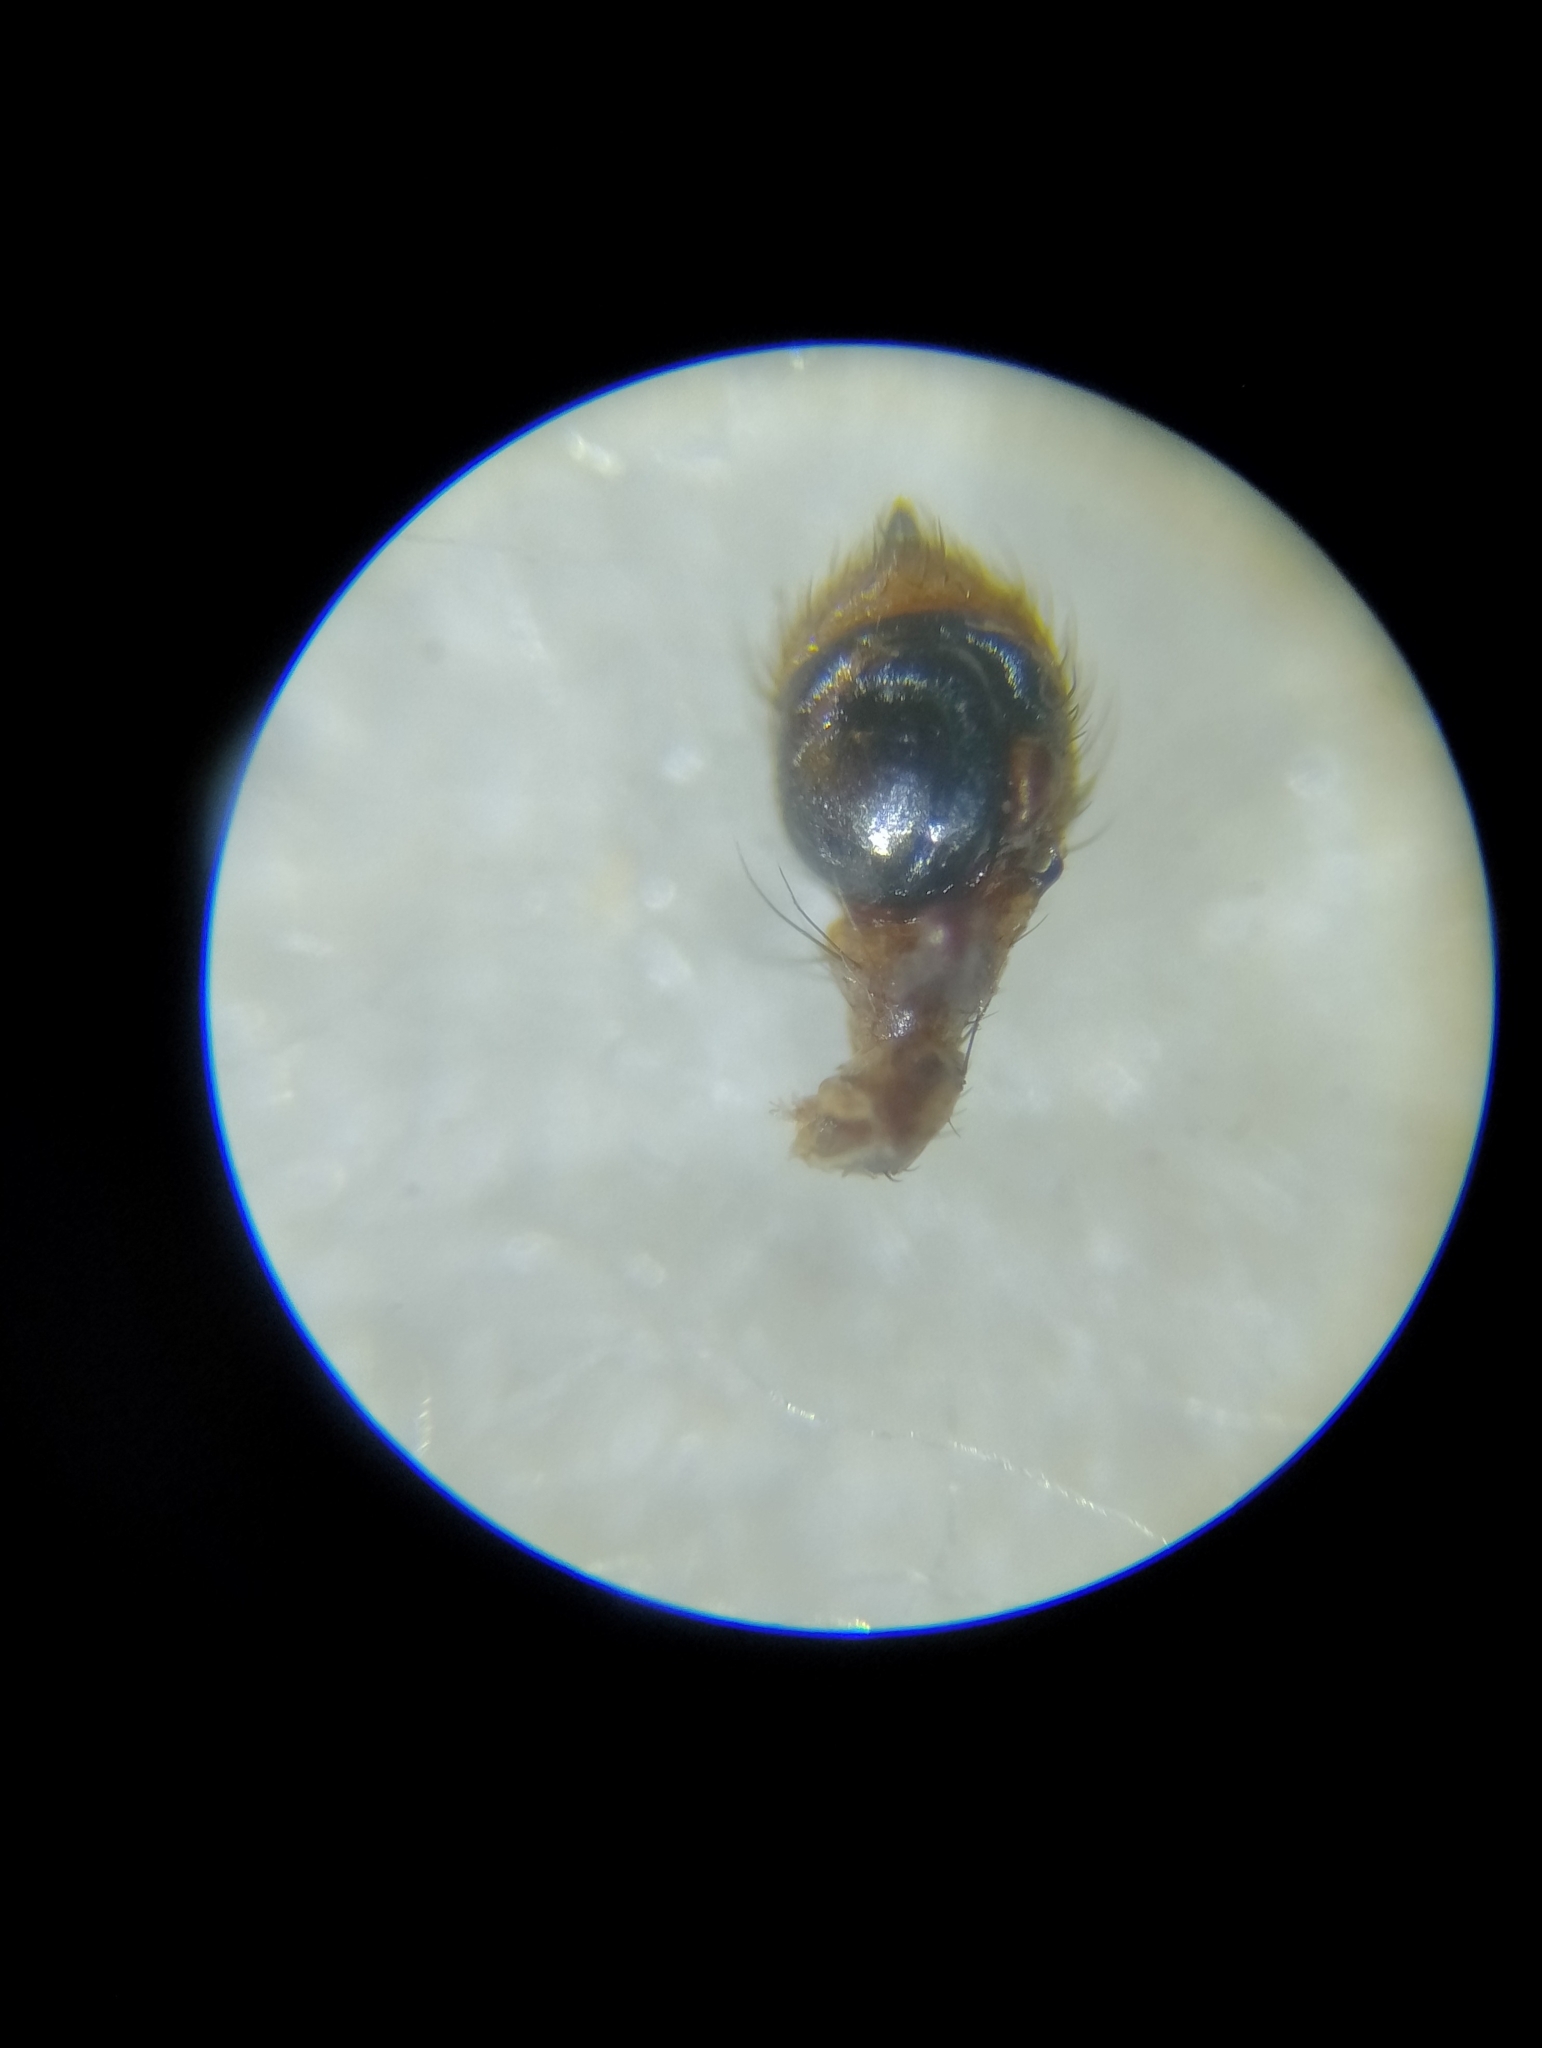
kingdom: Animalia
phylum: Arthropoda
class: Arachnida
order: Araneae
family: Thomisidae
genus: Spiracme
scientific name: Spiracme striatipes
